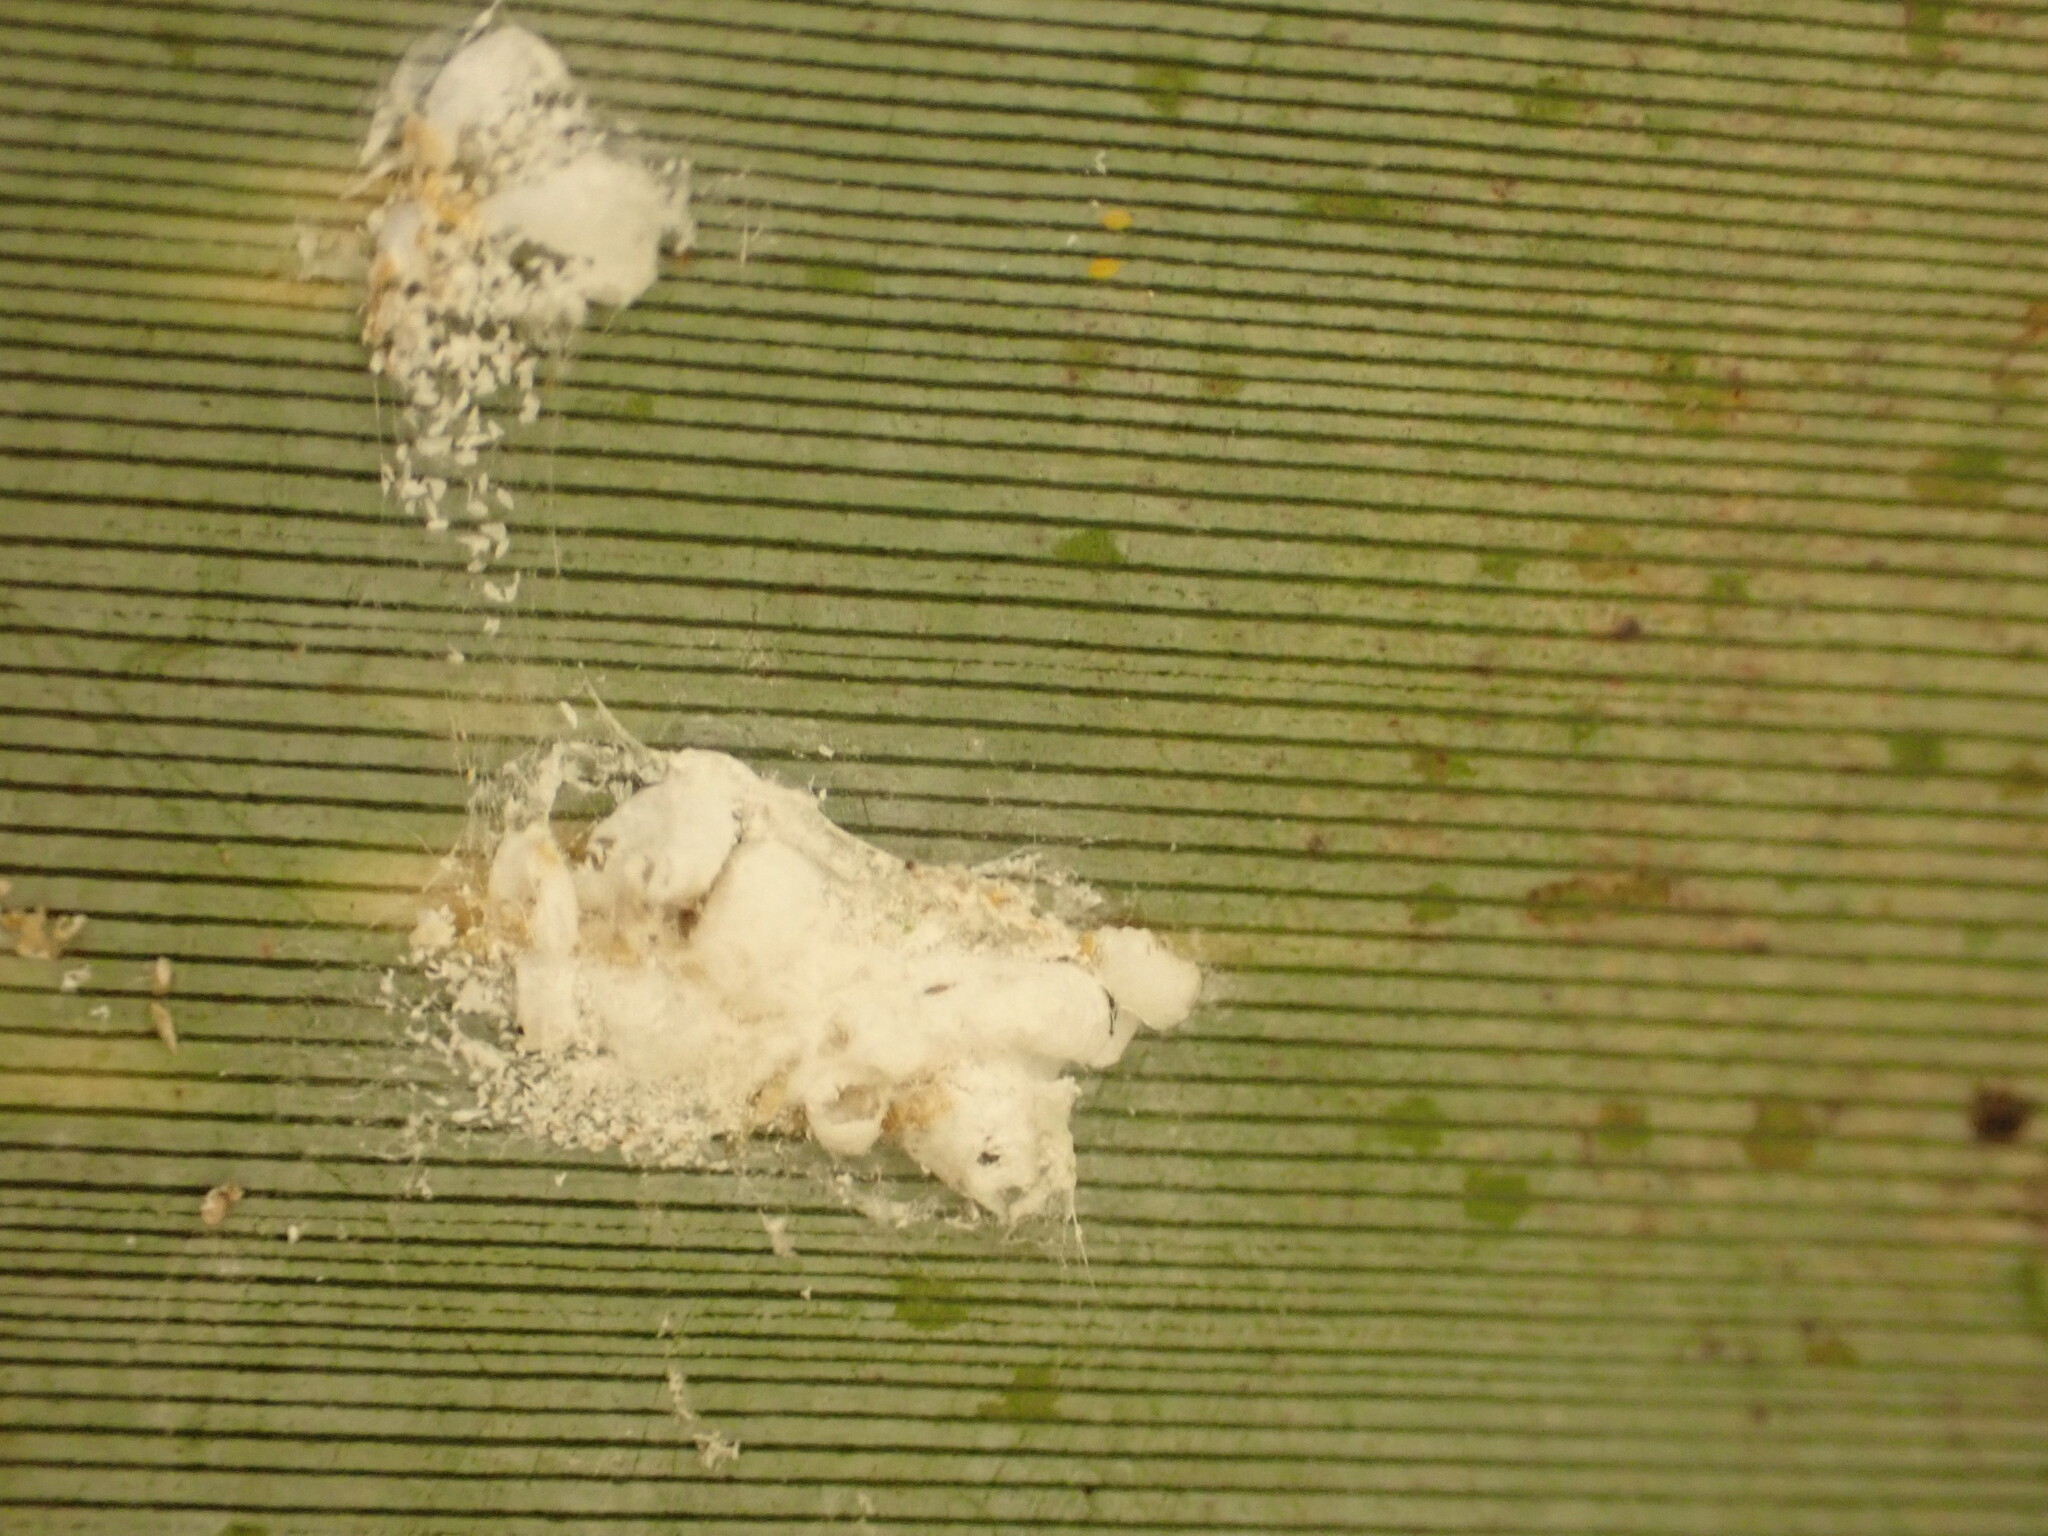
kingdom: Animalia
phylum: Arthropoda
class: Insecta
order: Hemiptera
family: Diaspididae
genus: Poliaspis
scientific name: Poliaspis floccosa
